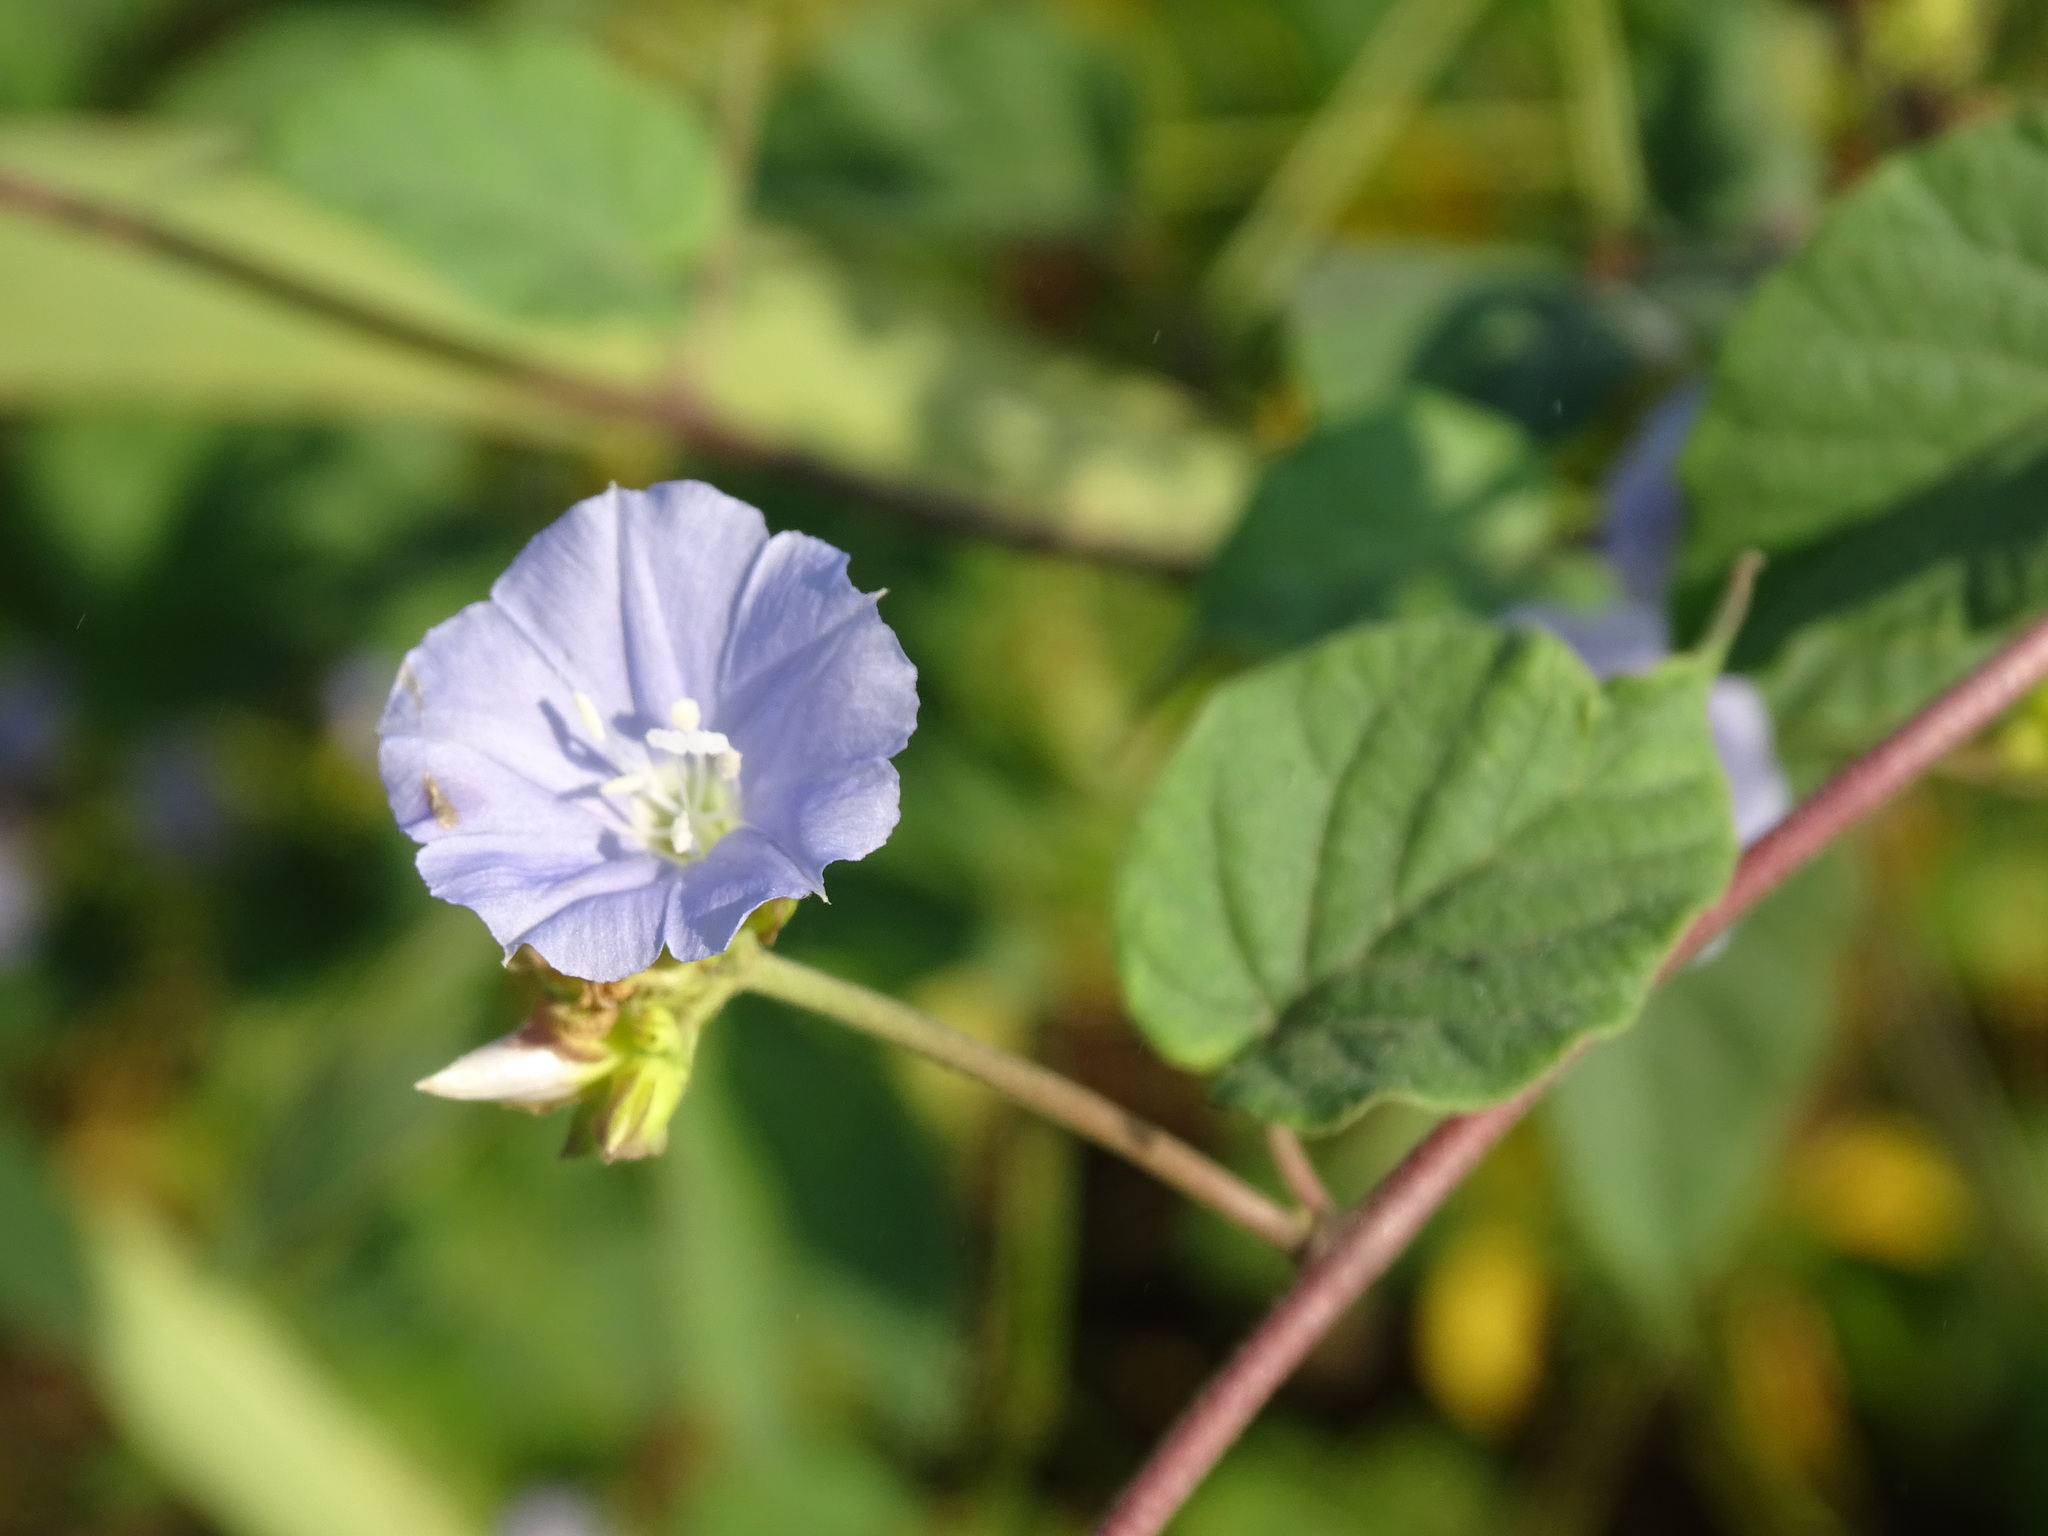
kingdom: Plantae
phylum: Tracheophyta
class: Magnoliopsida
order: Solanales
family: Convolvulaceae
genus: Jacquemontia
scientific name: Jacquemontia oaxacana
